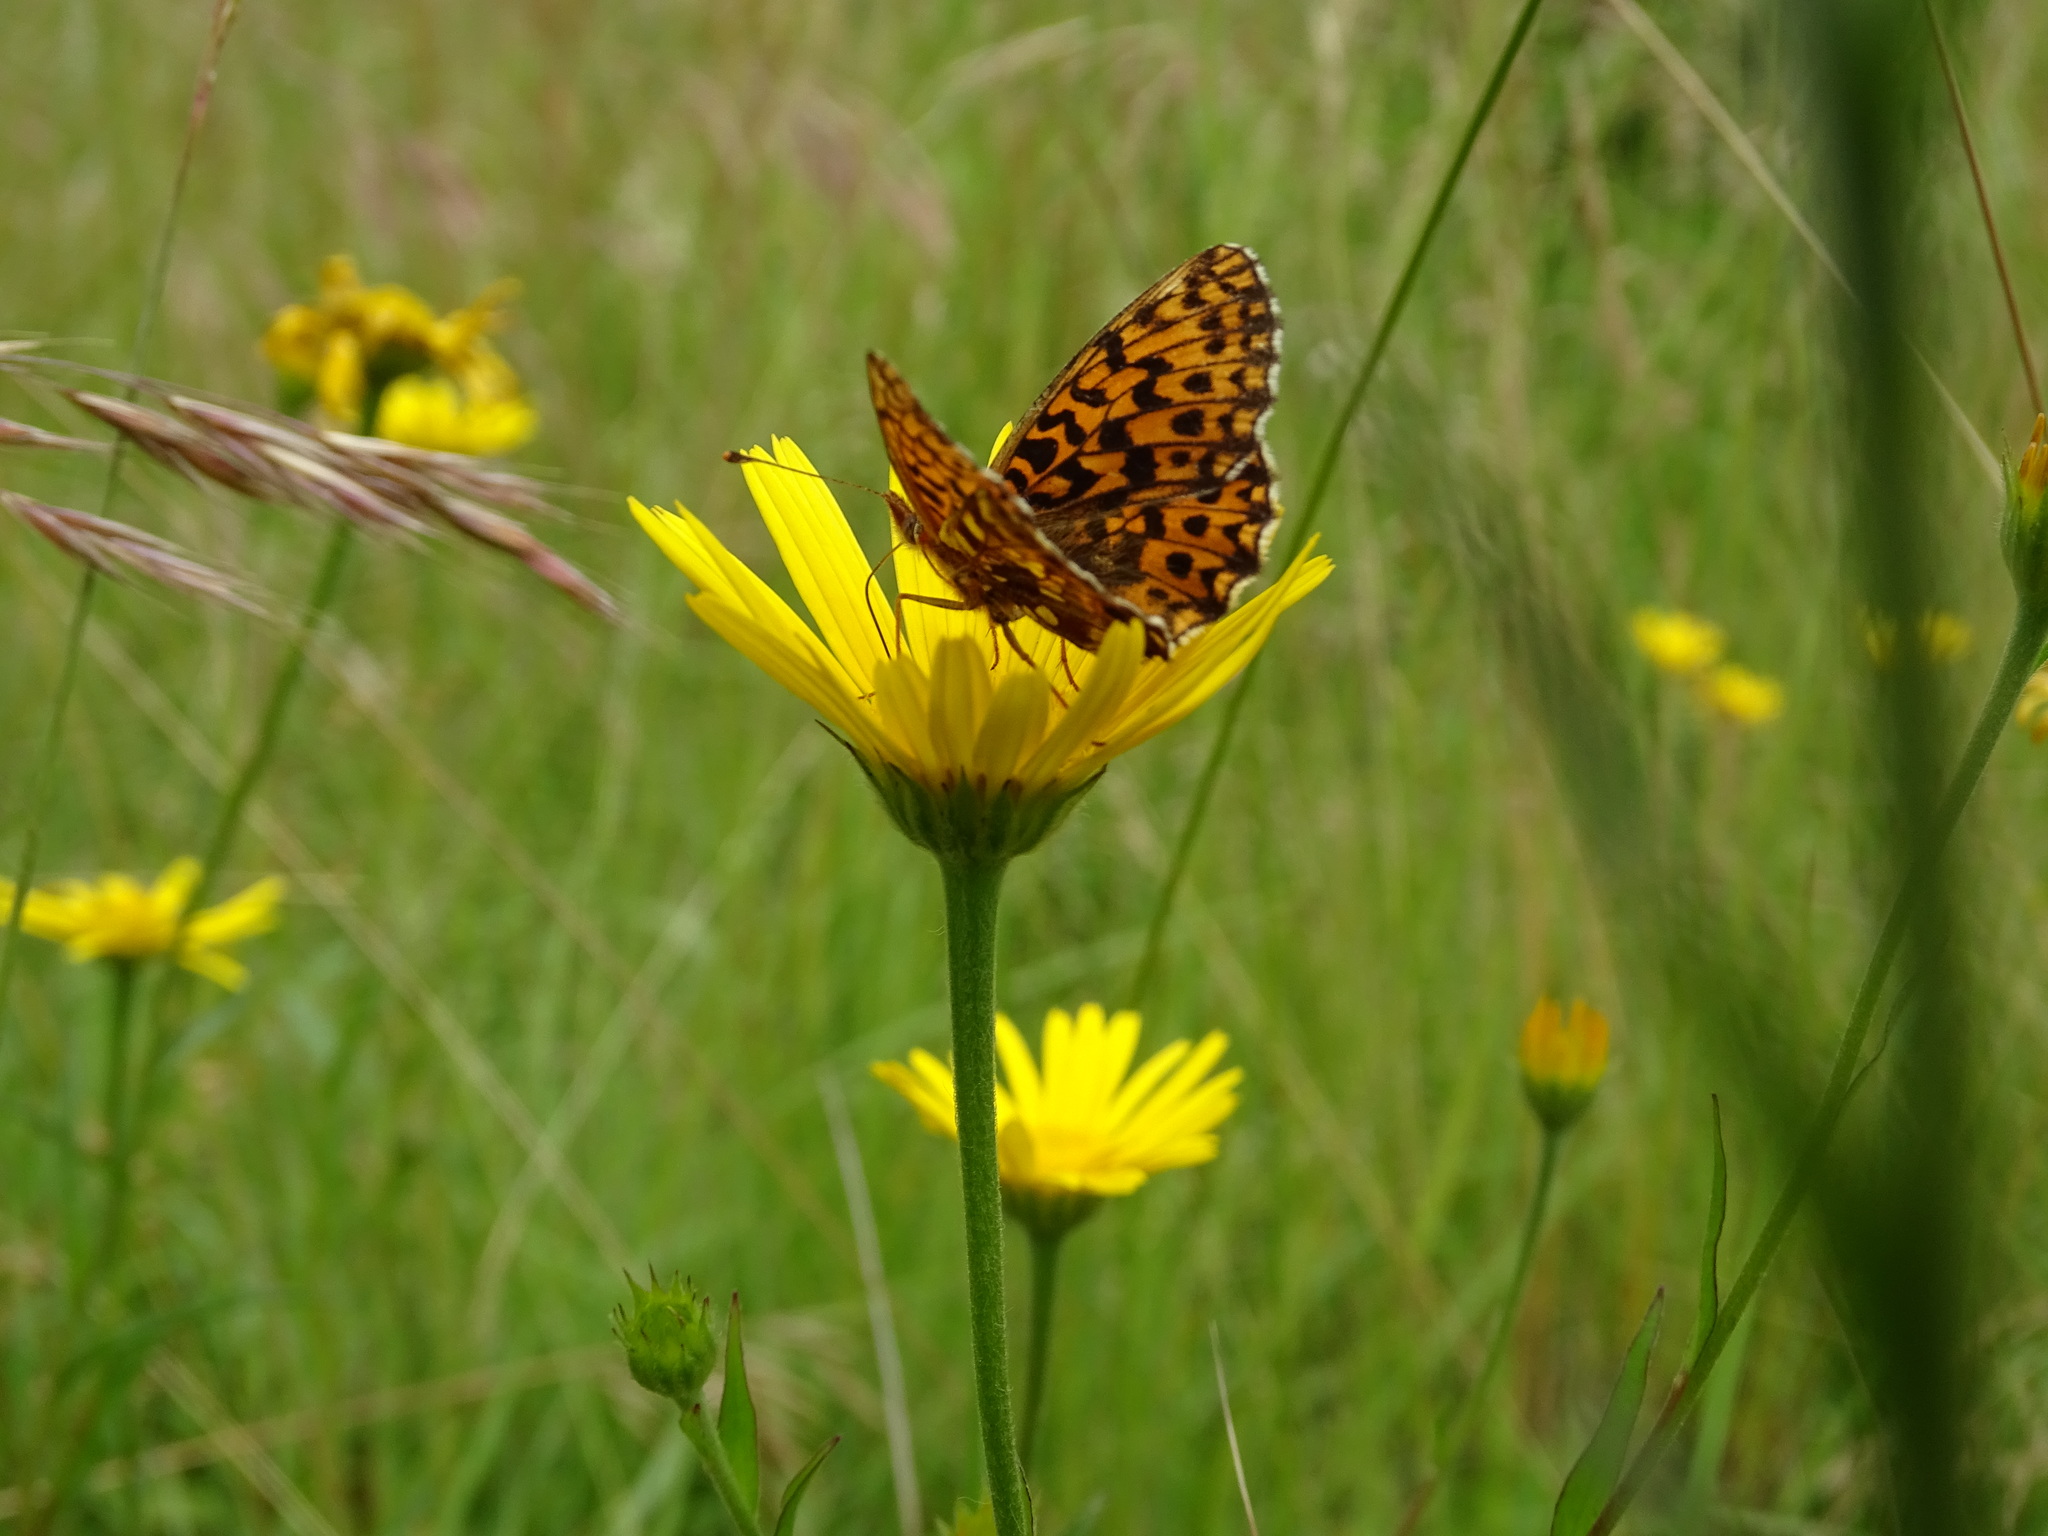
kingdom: Animalia
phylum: Arthropoda
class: Insecta
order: Lepidoptera
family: Nymphalidae
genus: Boloria
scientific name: Boloria dia
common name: Weaver's fritillary
